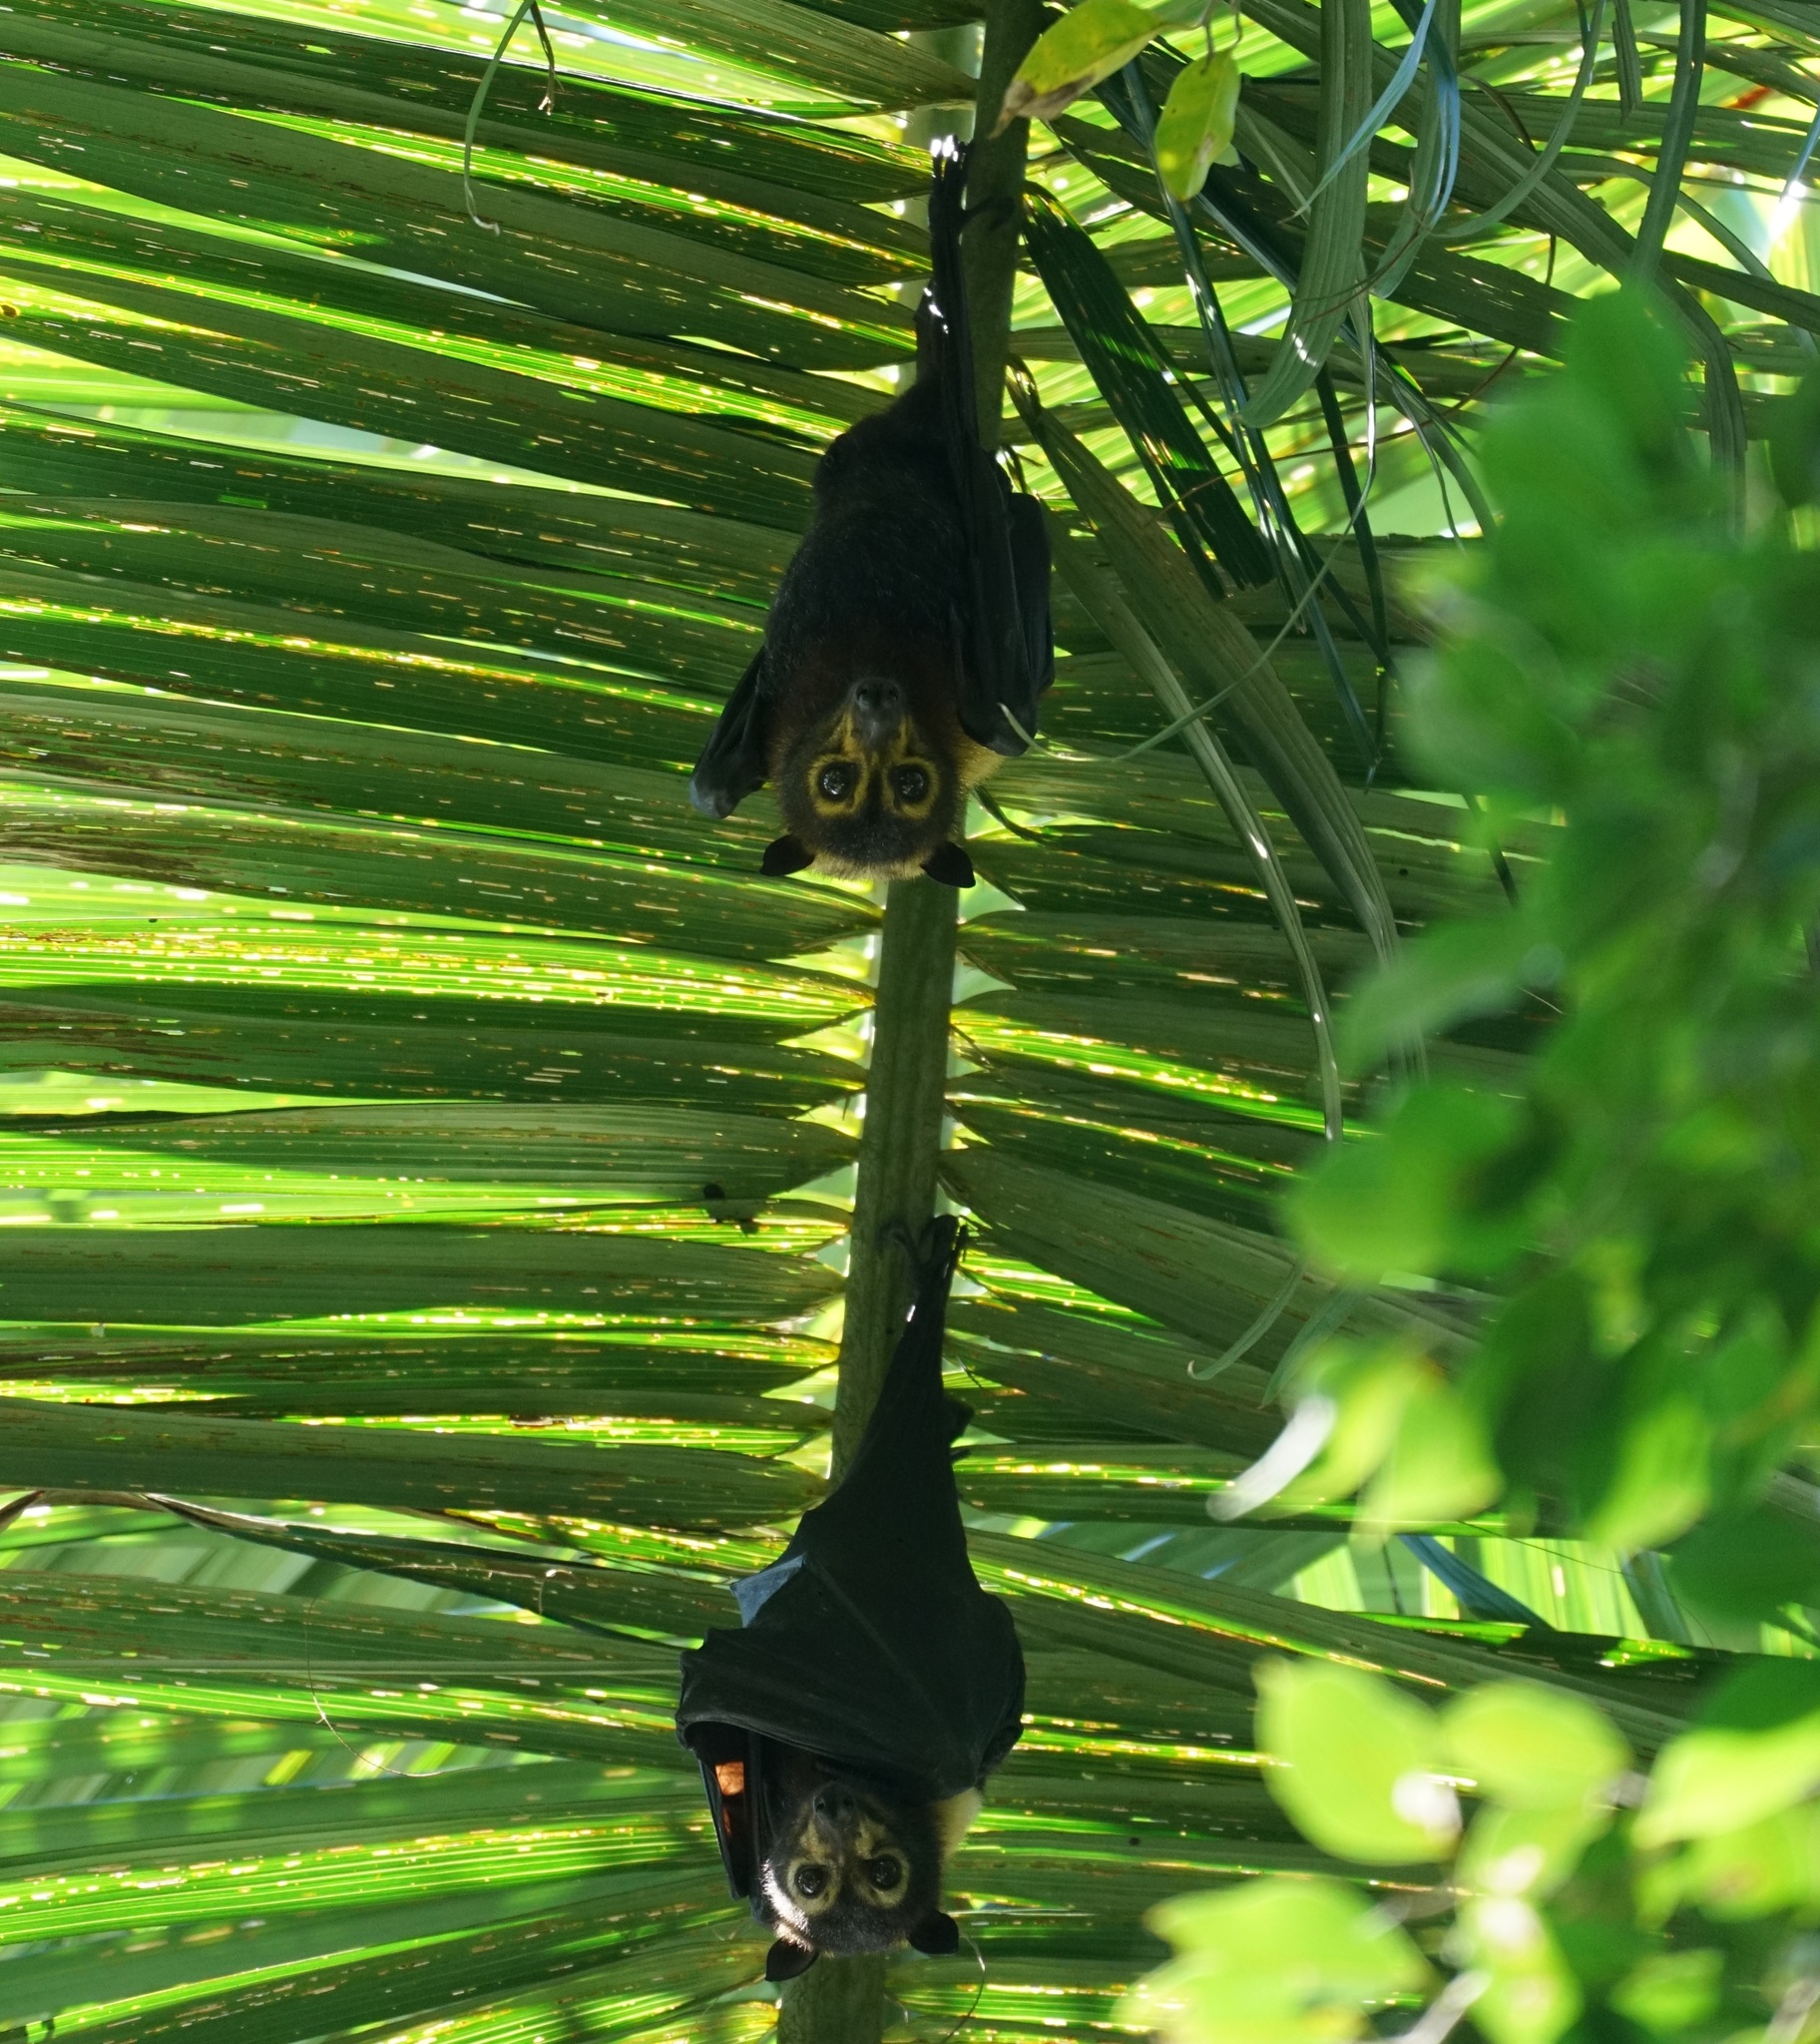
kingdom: Animalia
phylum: Chordata
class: Mammalia
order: Chiroptera
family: Pteropodidae
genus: Pteropus
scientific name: Pteropus conspicillatus
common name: Spectacled flying fox
